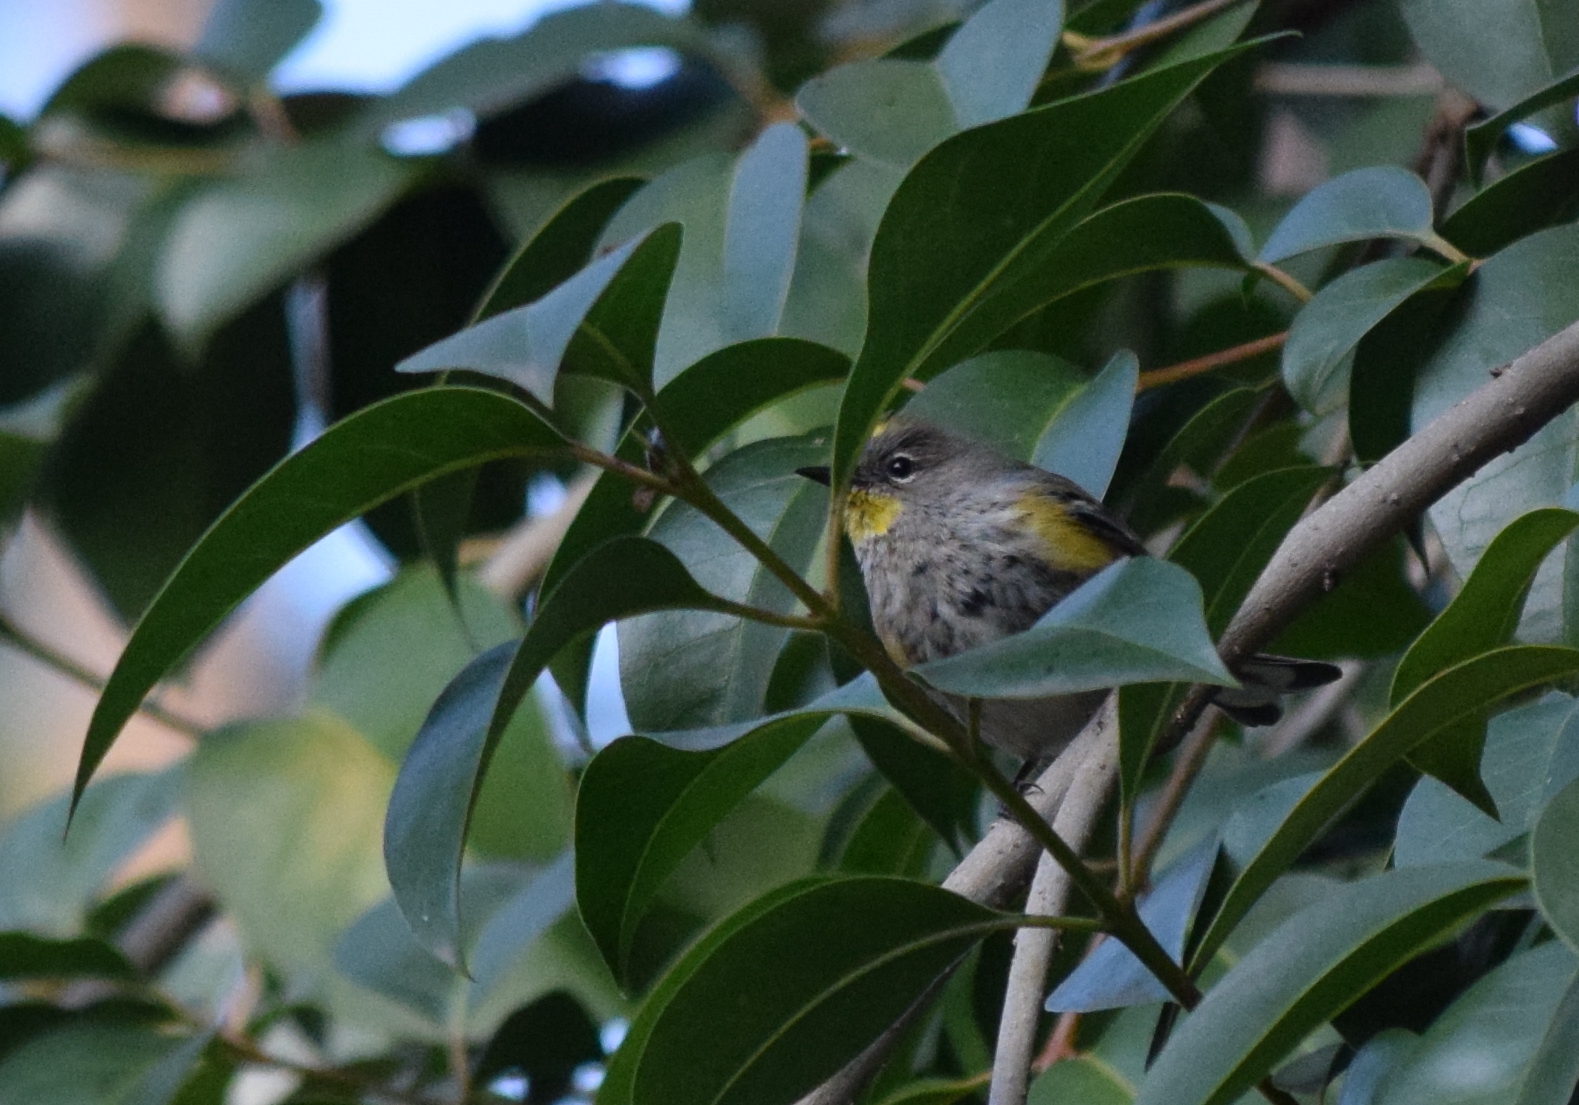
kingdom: Animalia
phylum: Chordata
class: Aves
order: Passeriformes
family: Parulidae
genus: Setophaga
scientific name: Setophaga coronata
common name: Myrtle warbler
